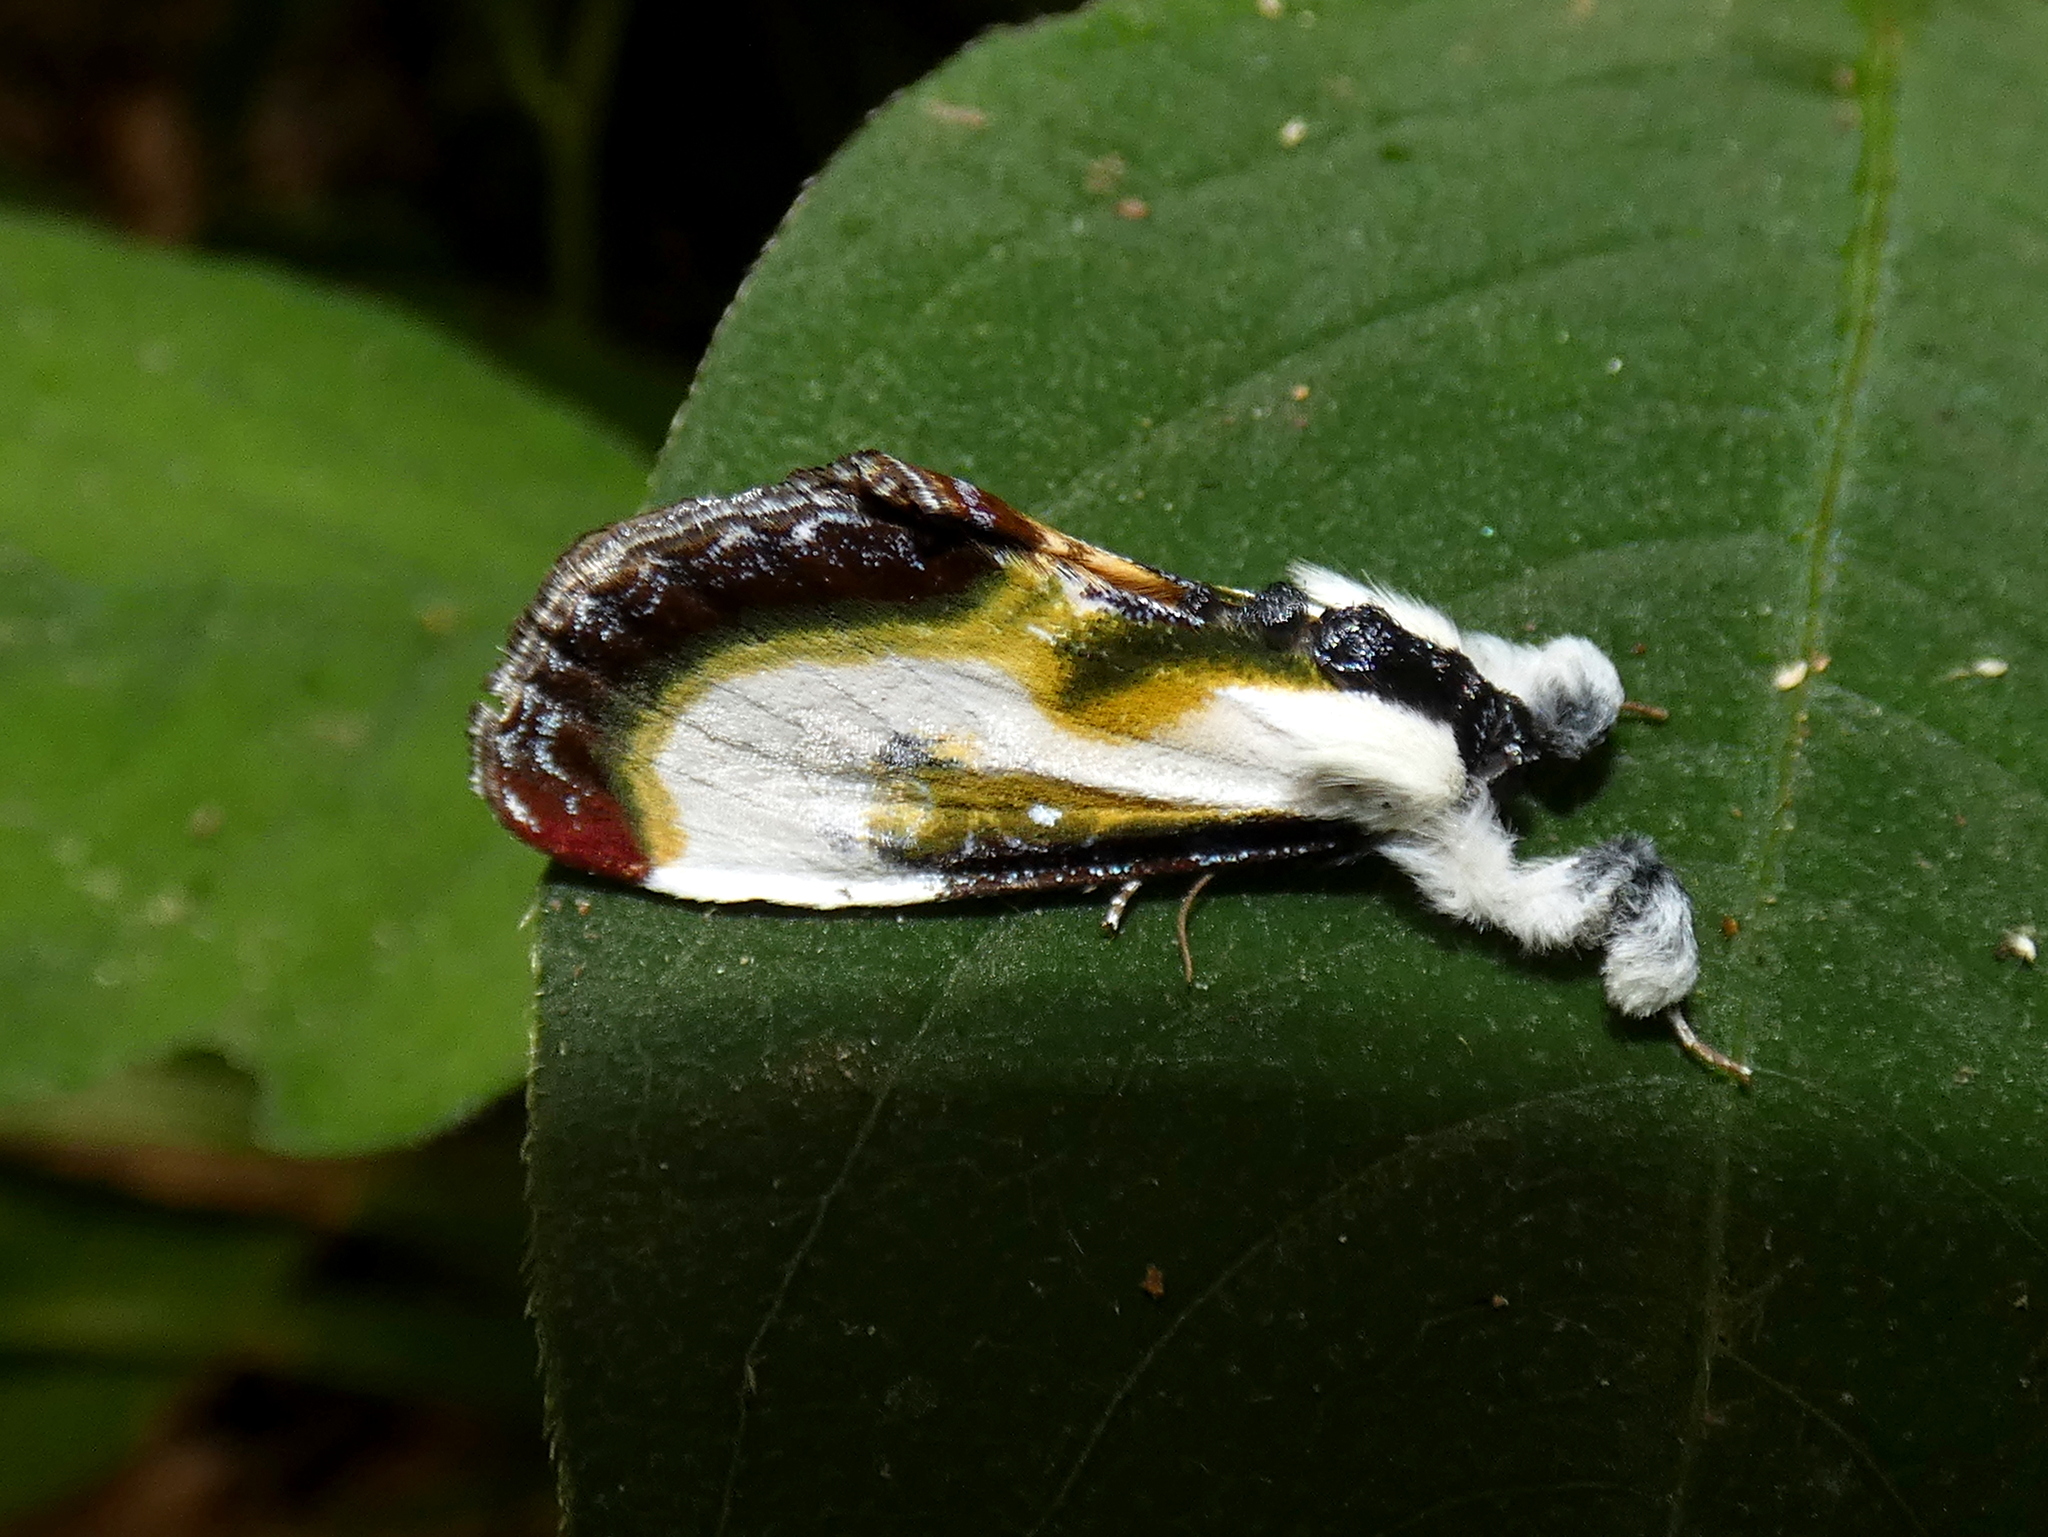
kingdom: Animalia
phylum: Arthropoda
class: Insecta
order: Lepidoptera
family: Noctuidae
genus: Eudryas
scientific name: Eudryas grata
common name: Beautiful wood-nymph
